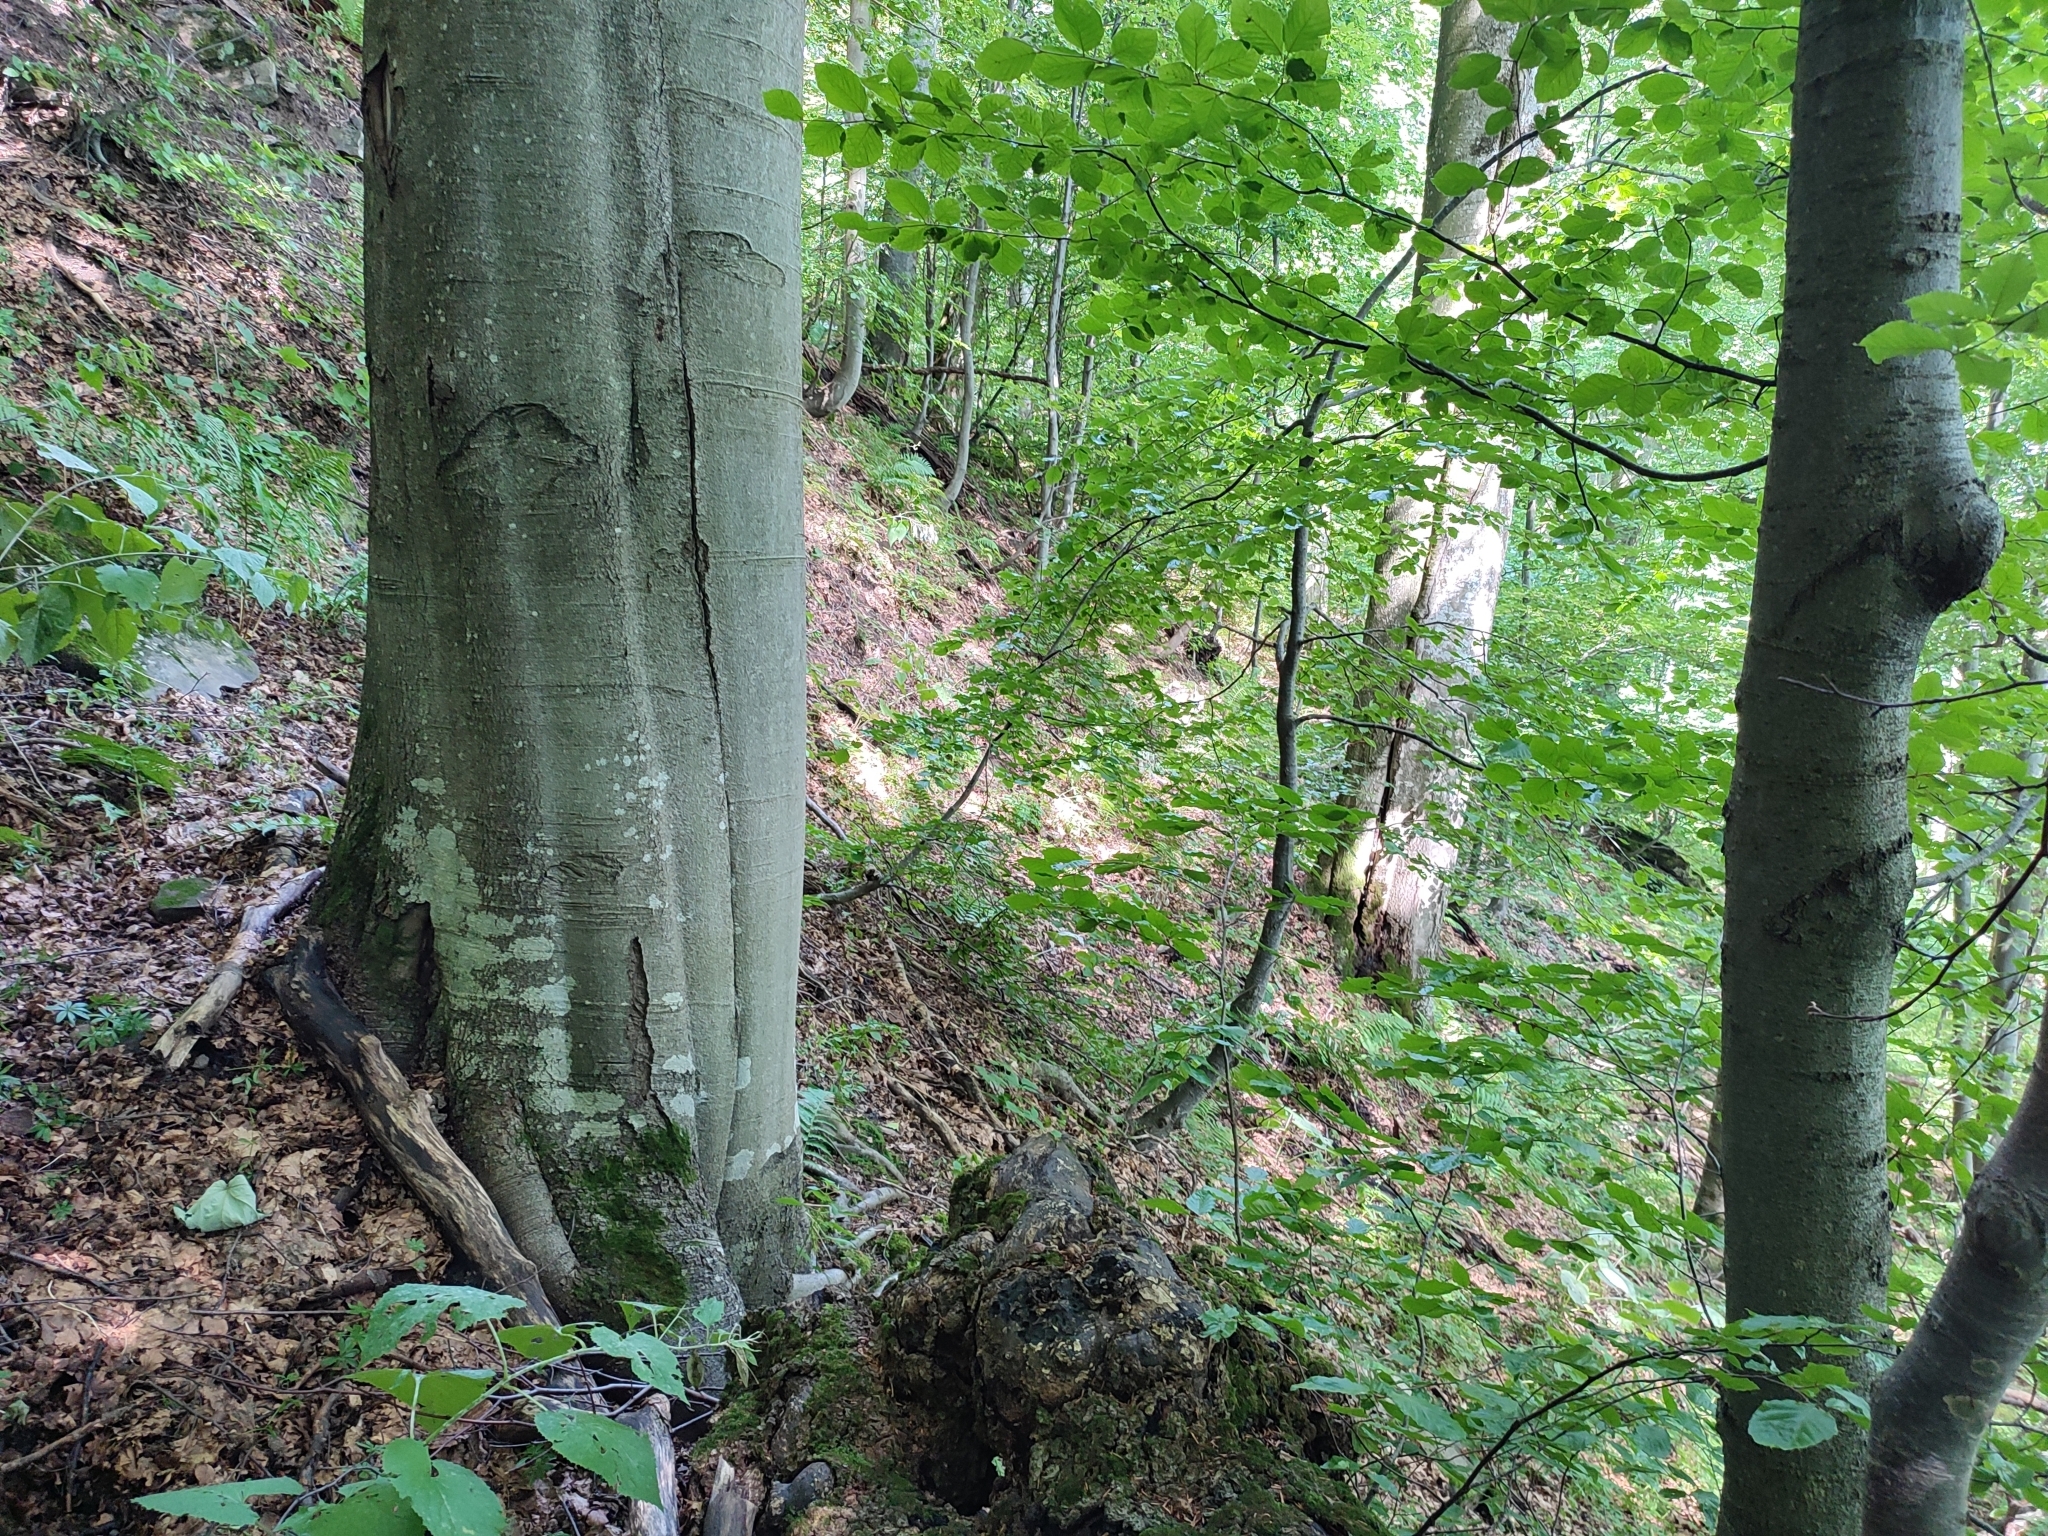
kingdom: Plantae
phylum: Tracheophyta
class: Magnoliopsida
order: Fagales
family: Fagaceae
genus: Fagus
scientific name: Fagus sylvatica
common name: Beech
